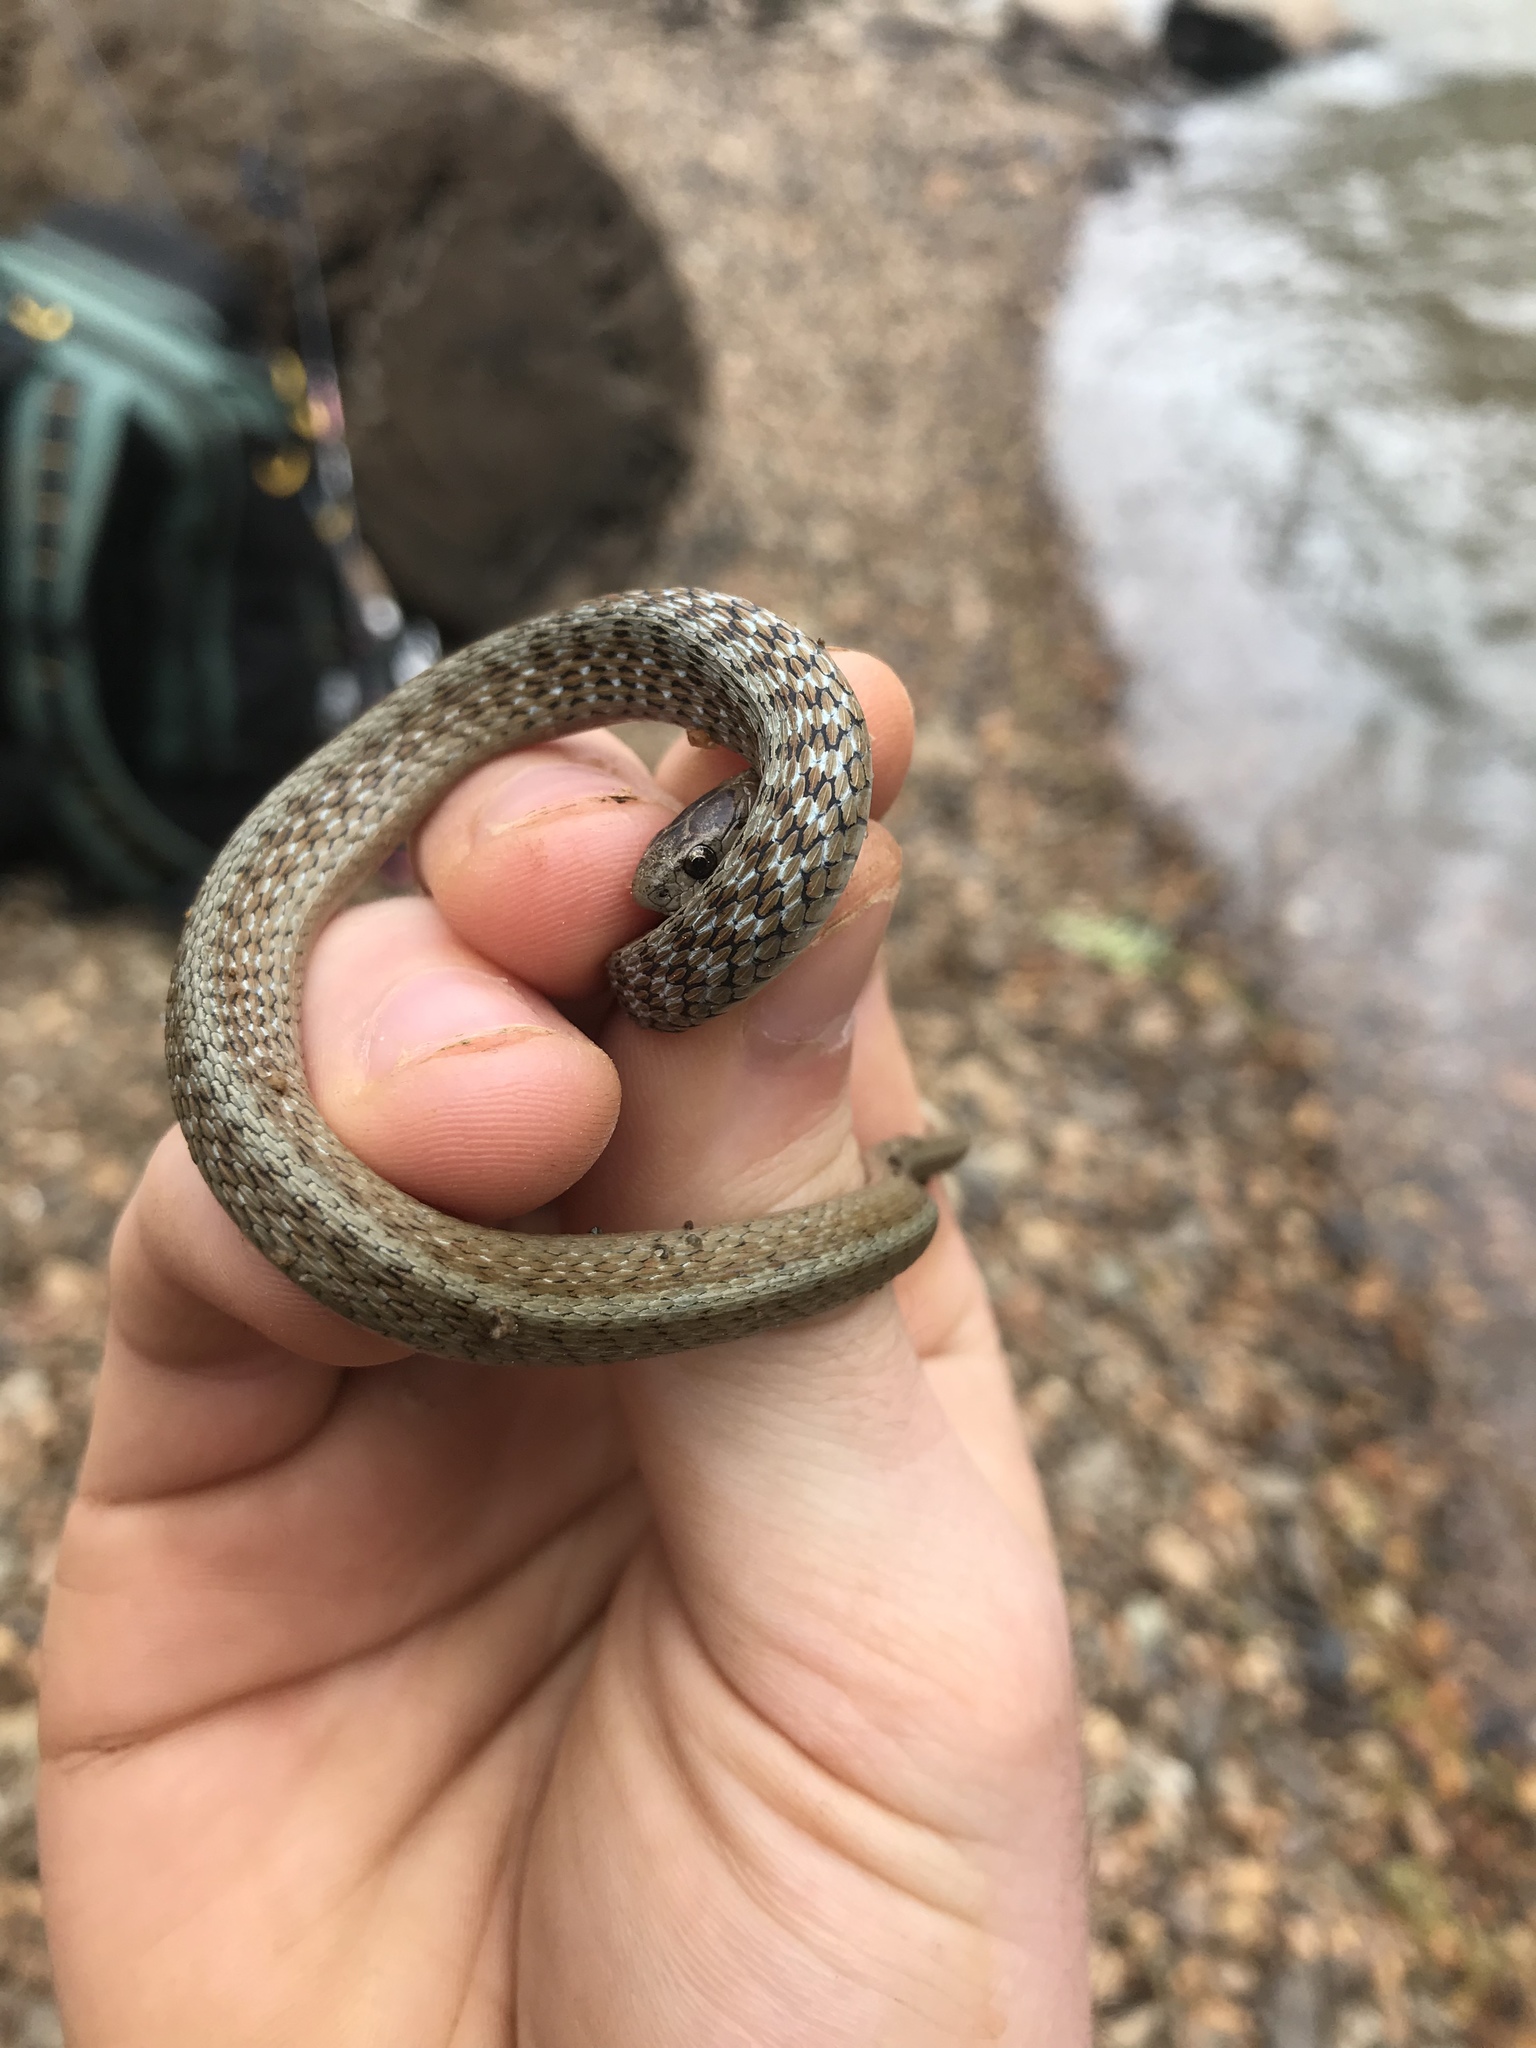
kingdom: Animalia
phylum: Chordata
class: Squamata
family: Colubridae
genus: Storeria
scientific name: Storeria dekayi
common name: (dekay’s) brown snake
